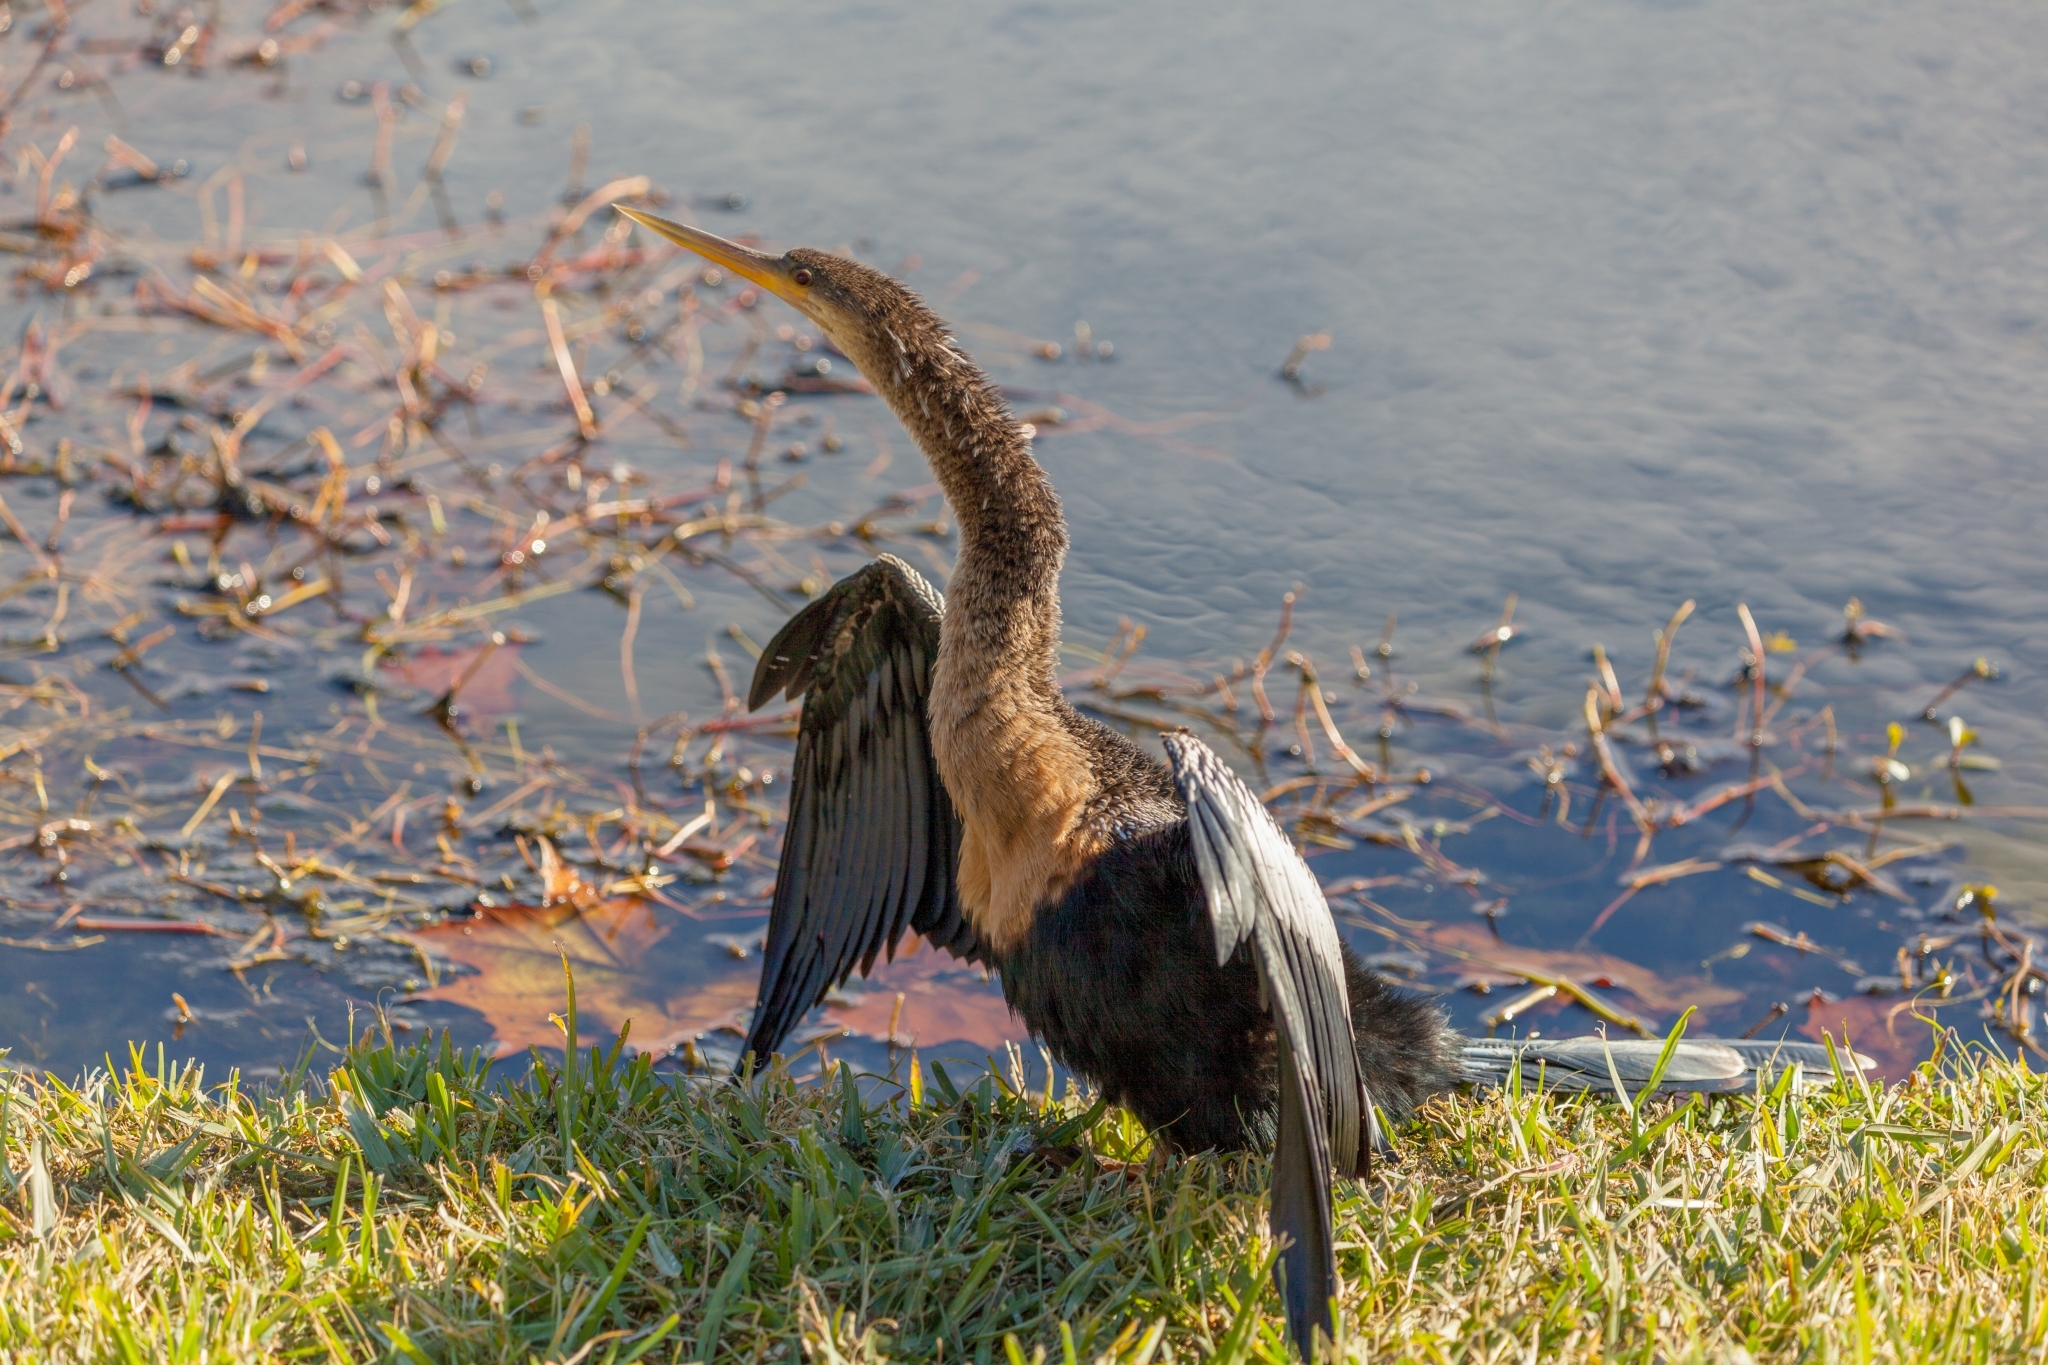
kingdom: Animalia
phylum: Chordata
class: Aves
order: Suliformes
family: Anhingidae
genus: Anhinga
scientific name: Anhinga anhinga
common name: Anhinga
